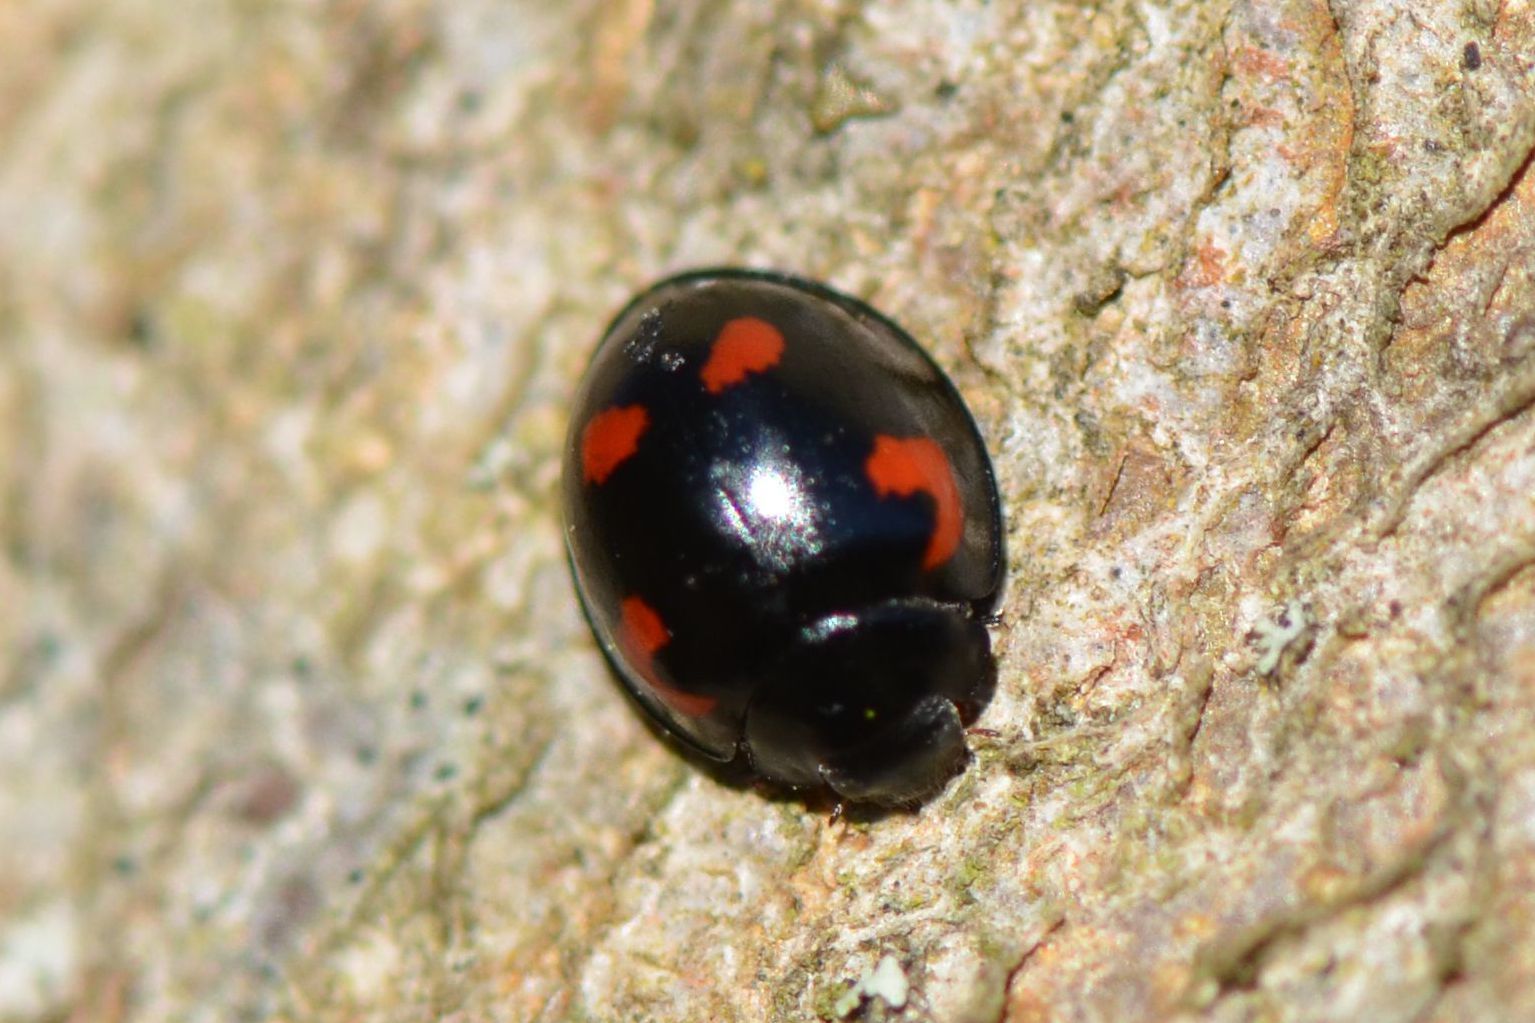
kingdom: Animalia
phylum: Arthropoda
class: Insecta
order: Coleoptera
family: Coccinellidae
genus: Brumus
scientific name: Brumus quadripustulatus
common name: Ladybird beetle
